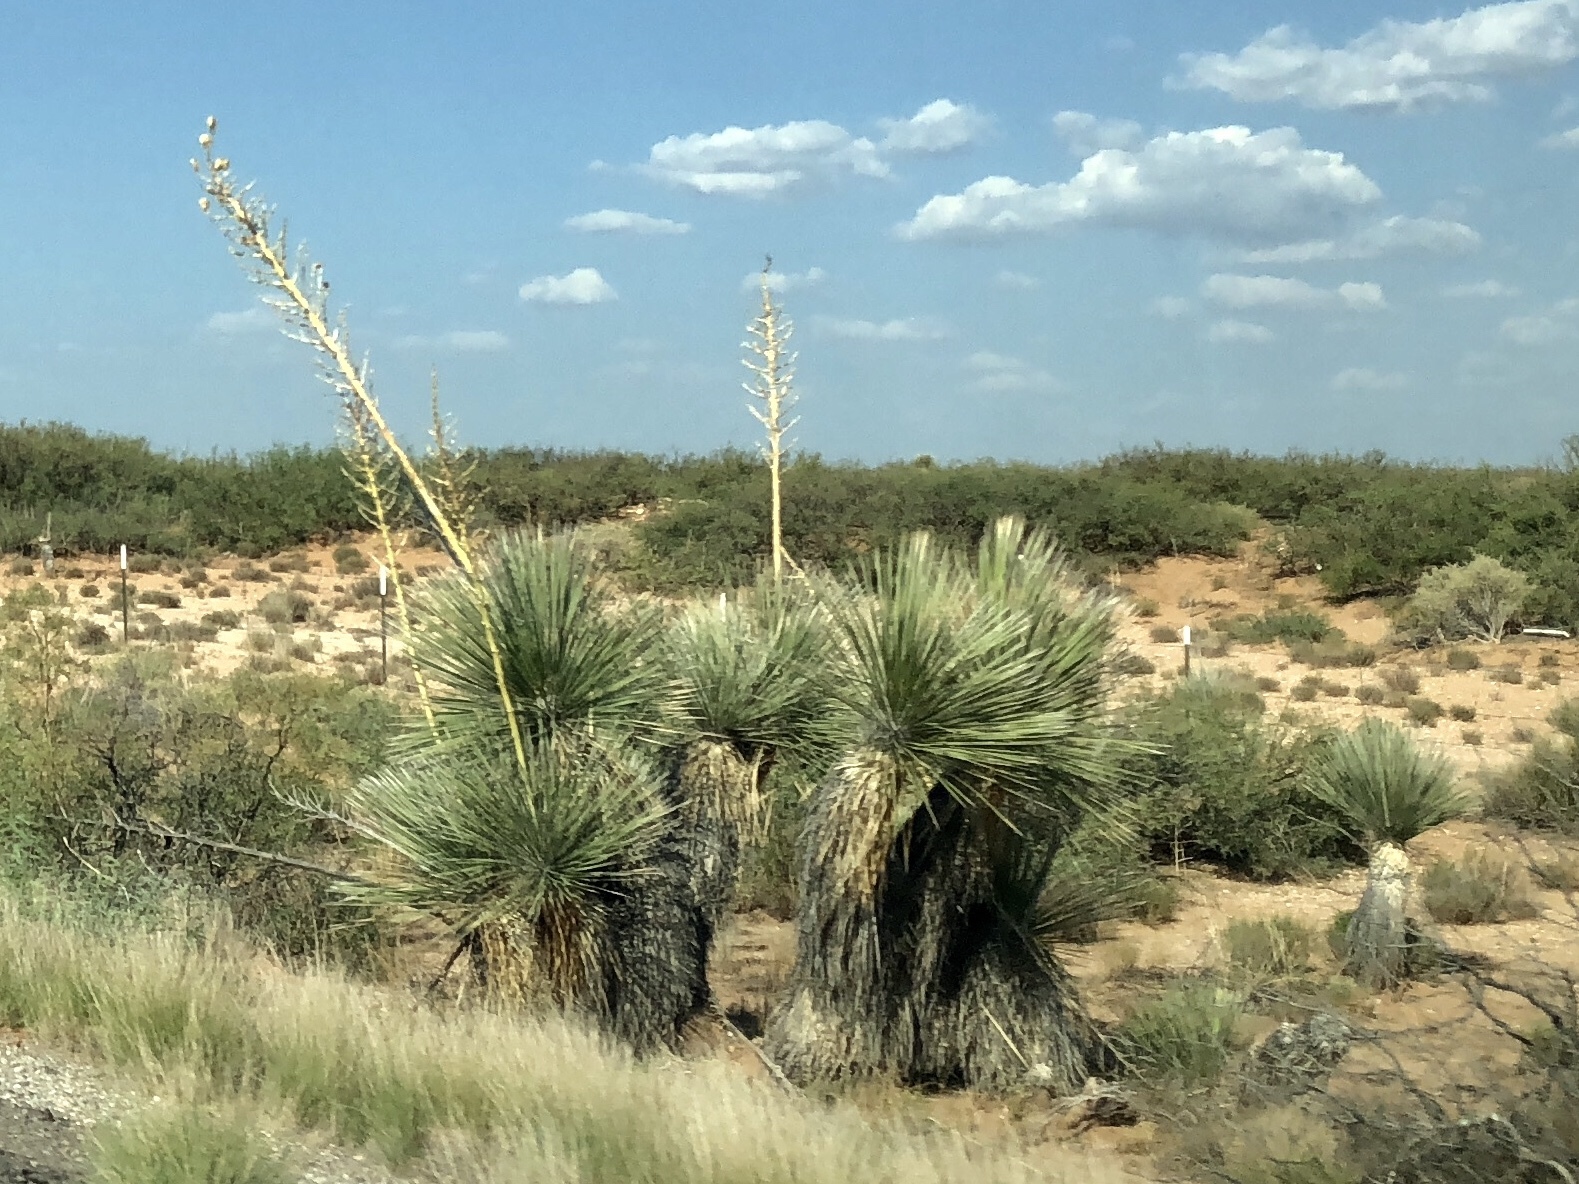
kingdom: Plantae
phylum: Tracheophyta
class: Liliopsida
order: Asparagales
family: Asparagaceae
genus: Yucca
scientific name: Yucca elata
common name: Palmella
